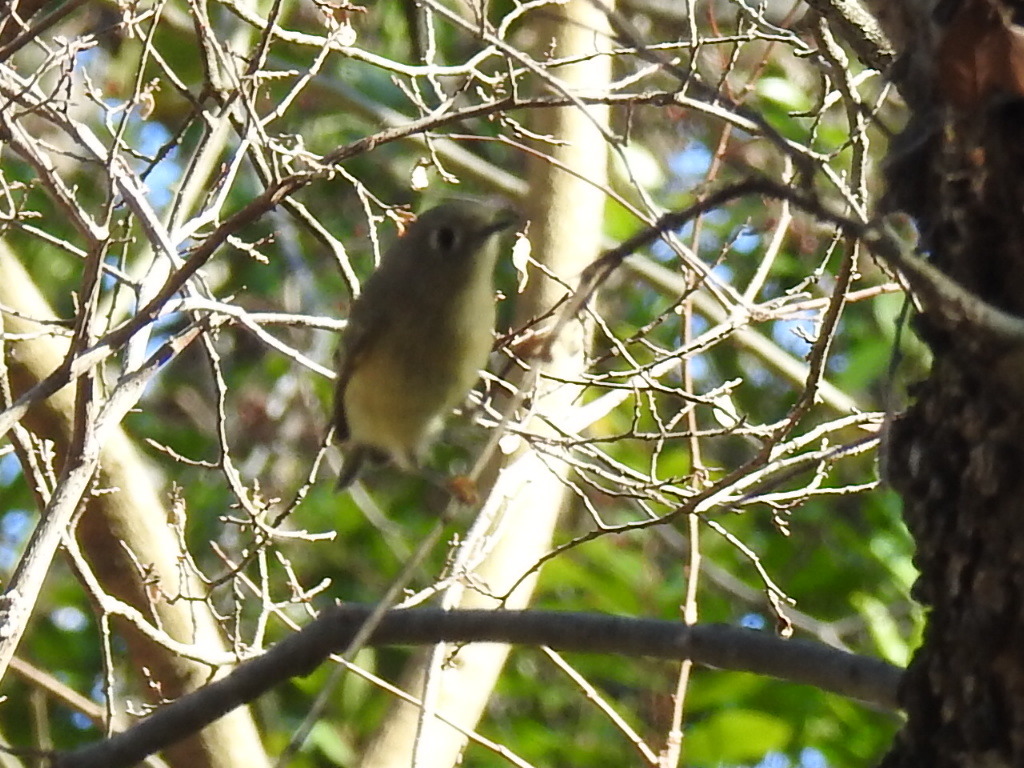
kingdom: Animalia
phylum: Chordata
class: Aves
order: Passeriformes
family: Regulidae
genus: Regulus
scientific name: Regulus calendula
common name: Ruby-crowned kinglet
